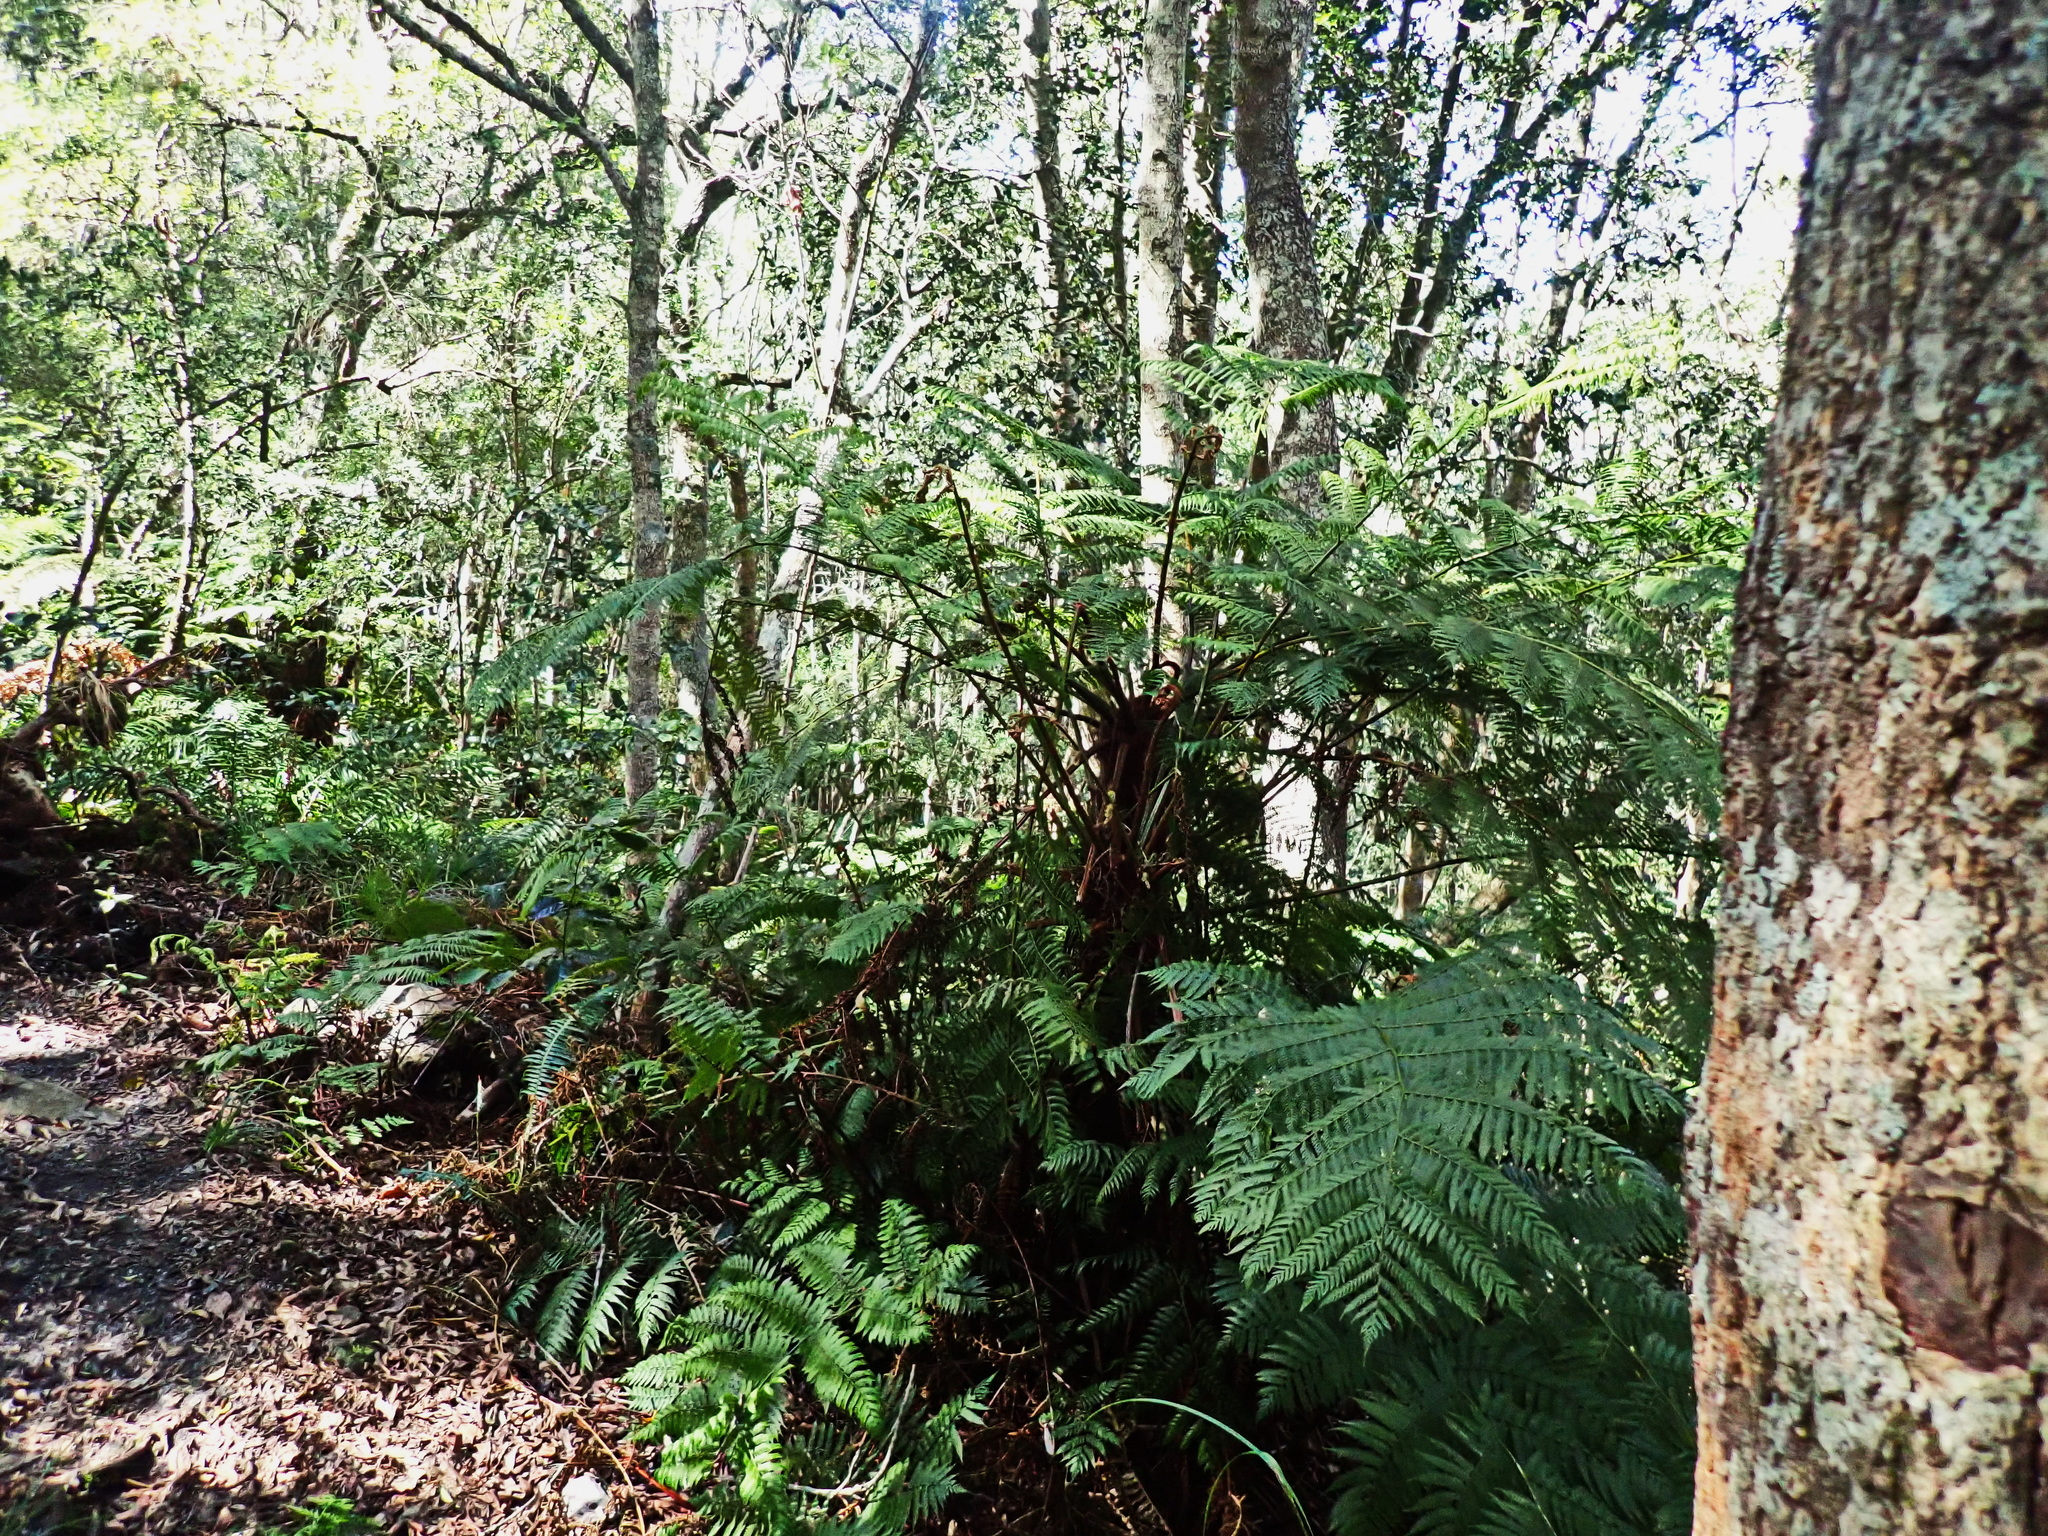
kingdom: Plantae
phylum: Tracheophyta
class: Polypodiopsida
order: Cyatheales
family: Cyatheaceae
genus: Gymnosphaera
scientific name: Gymnosphaera capensis
